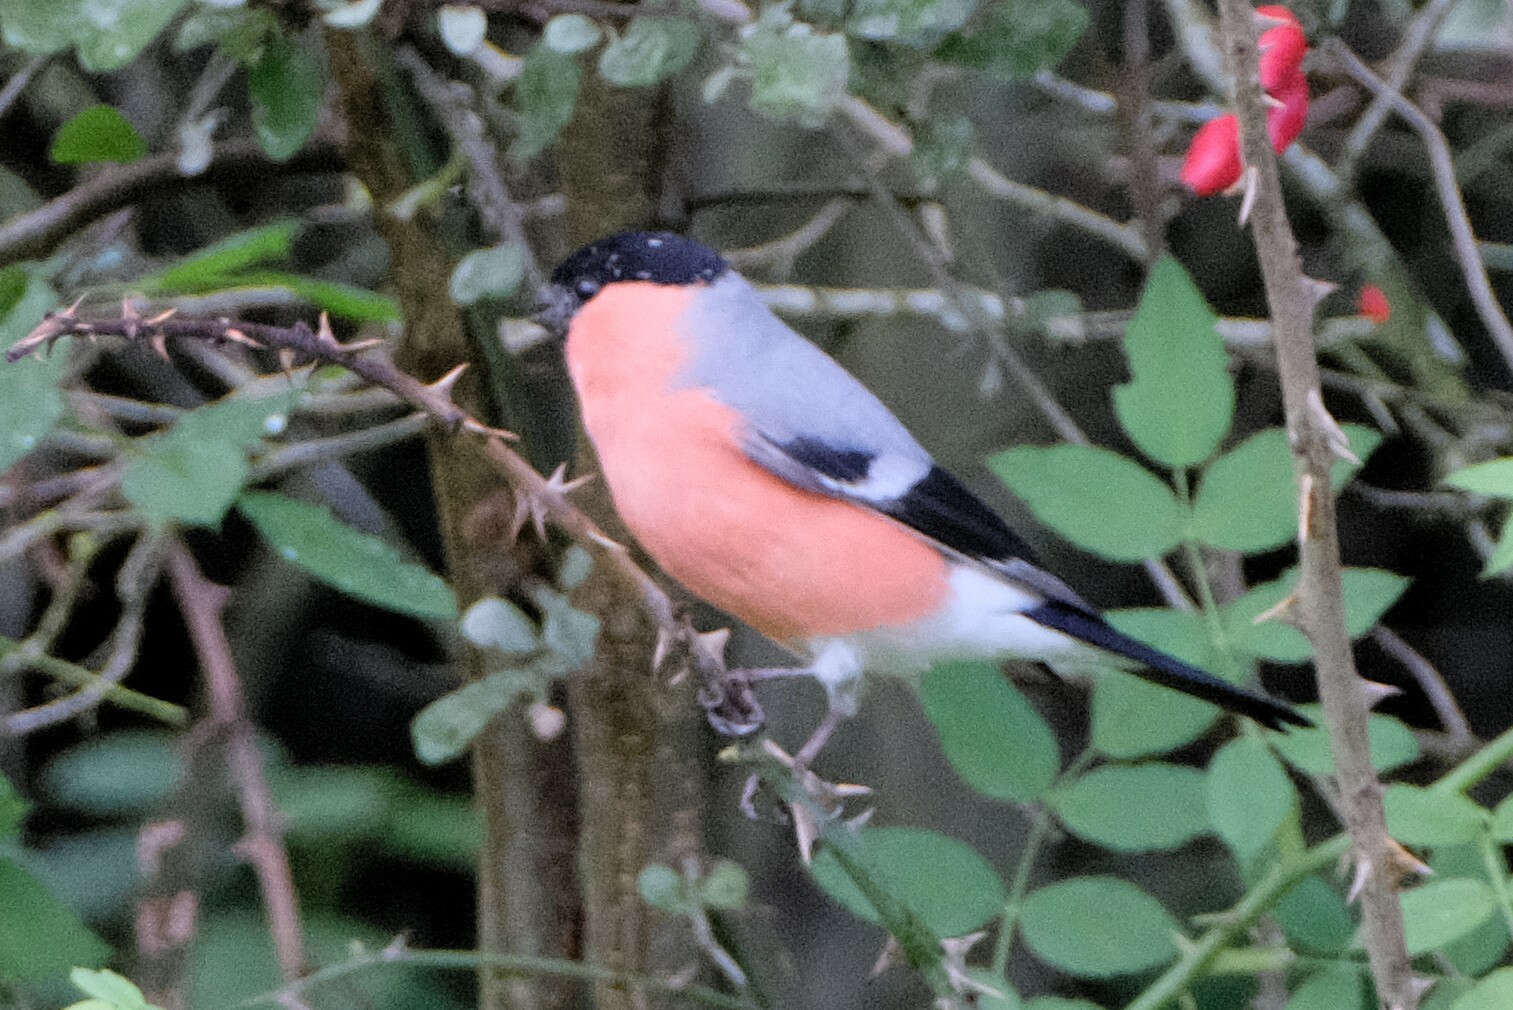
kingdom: Animalia
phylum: Chordata
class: Aves
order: Passeriformes
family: Fringillidae
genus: Pyrrhula
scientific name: Pyrrhula pyrrhula
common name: Eurasian bullfinch
